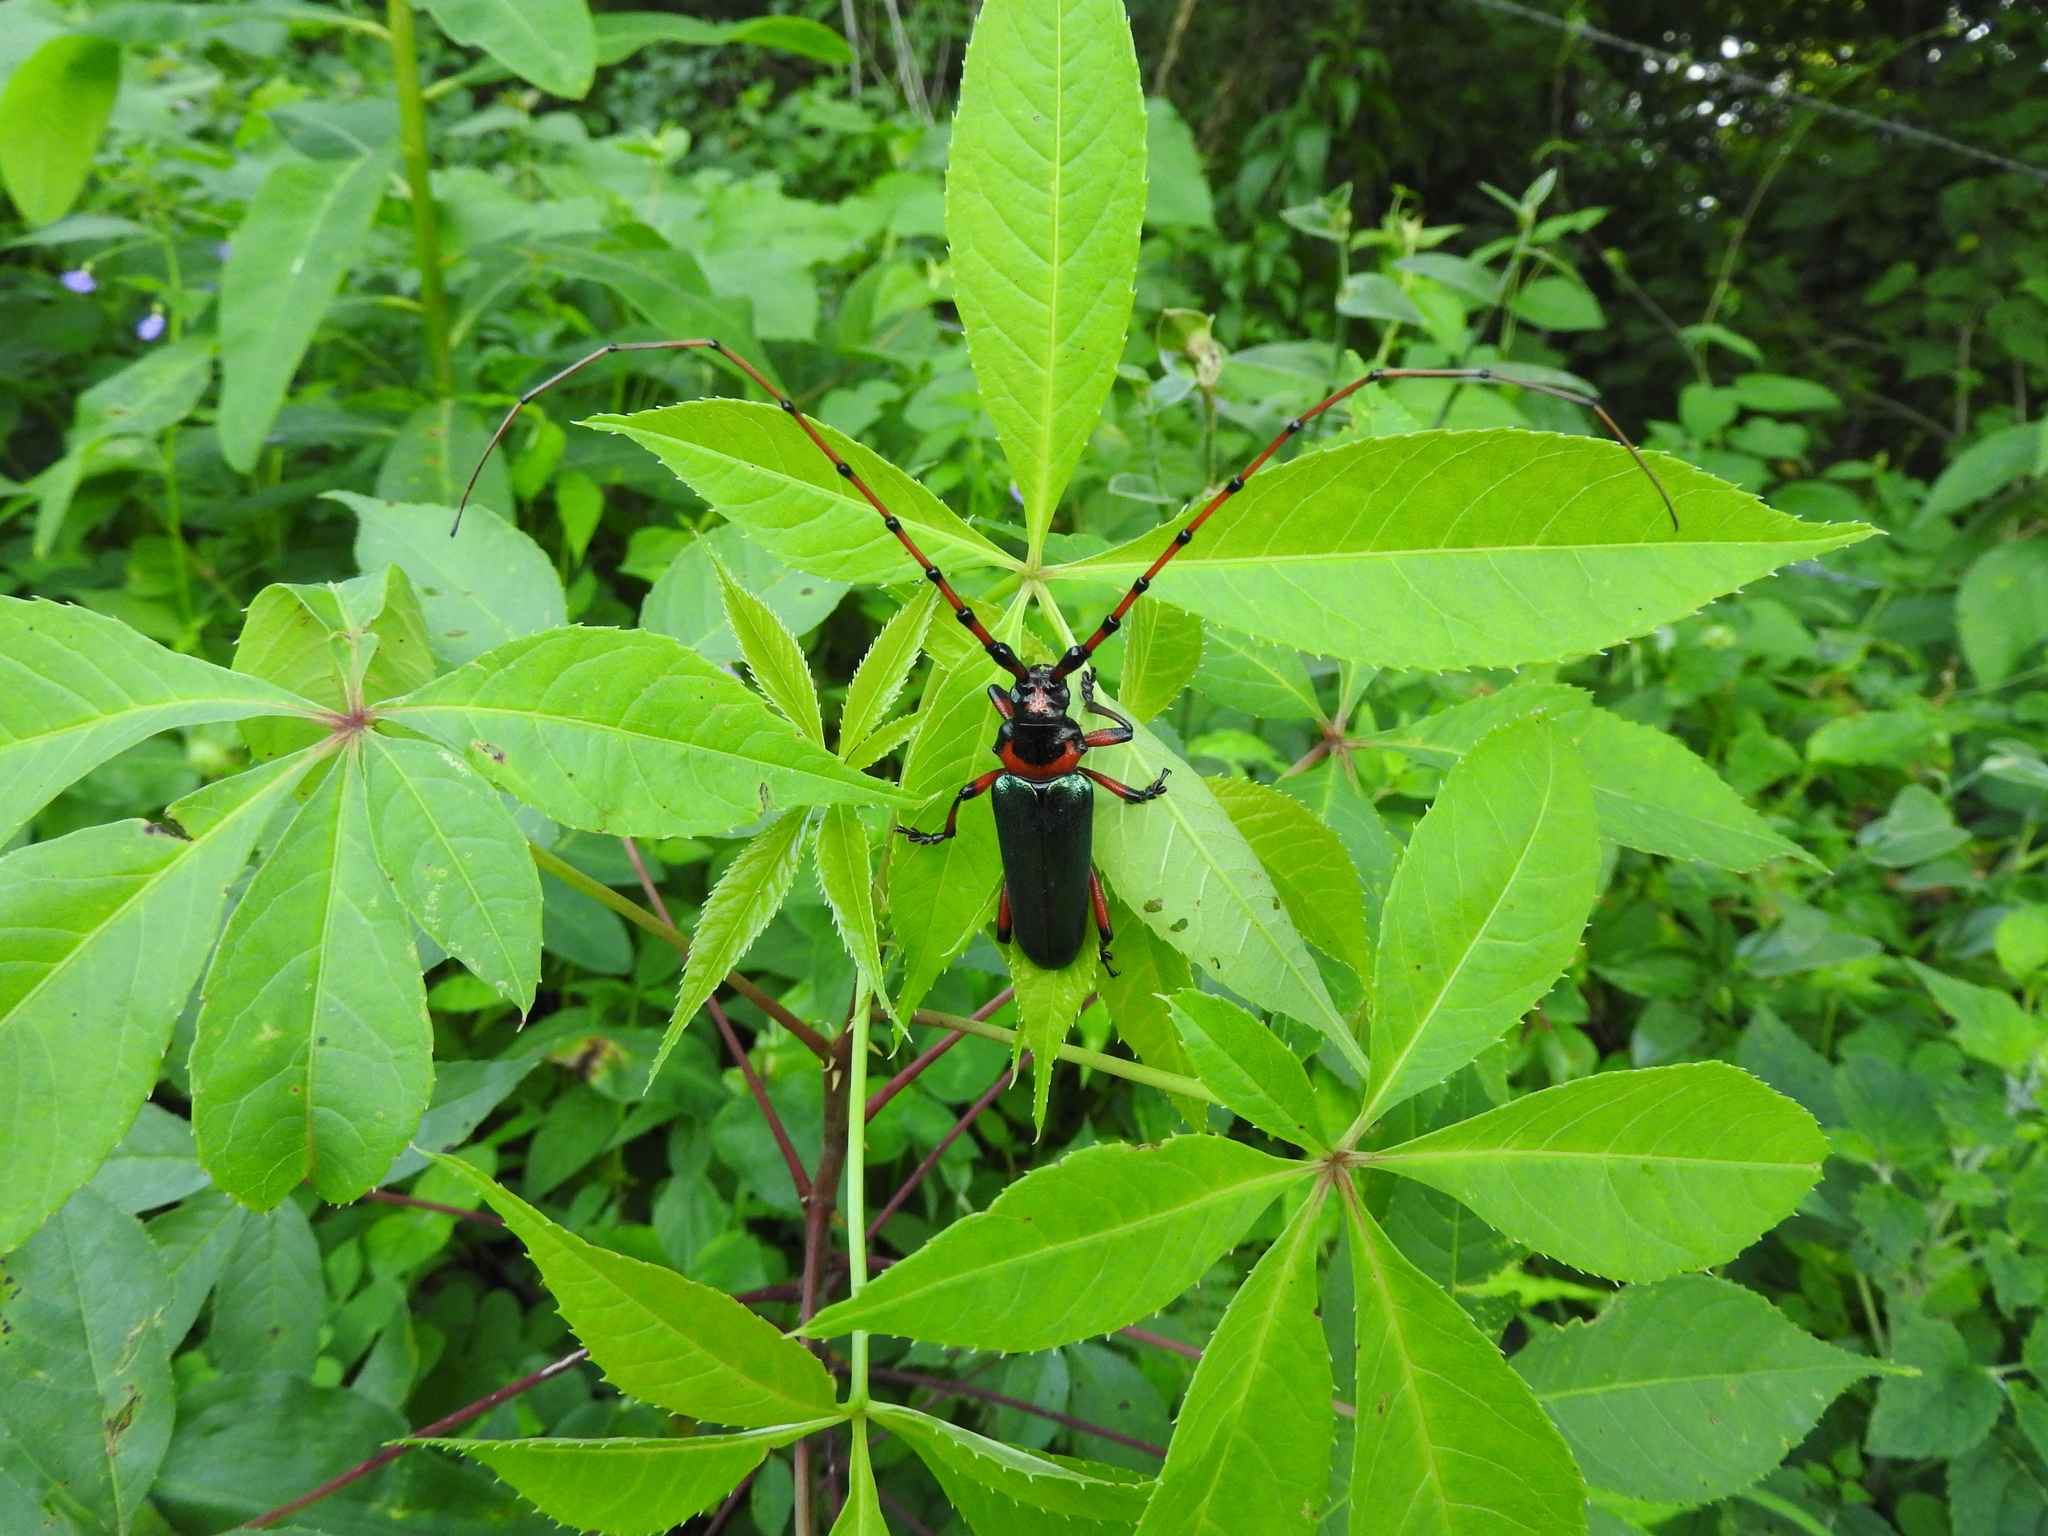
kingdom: Animalia
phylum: Arthropoda
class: Insecta
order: Coleoptera
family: Cerambycidae
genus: Stenaspis
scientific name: Stenaspis verticalis
